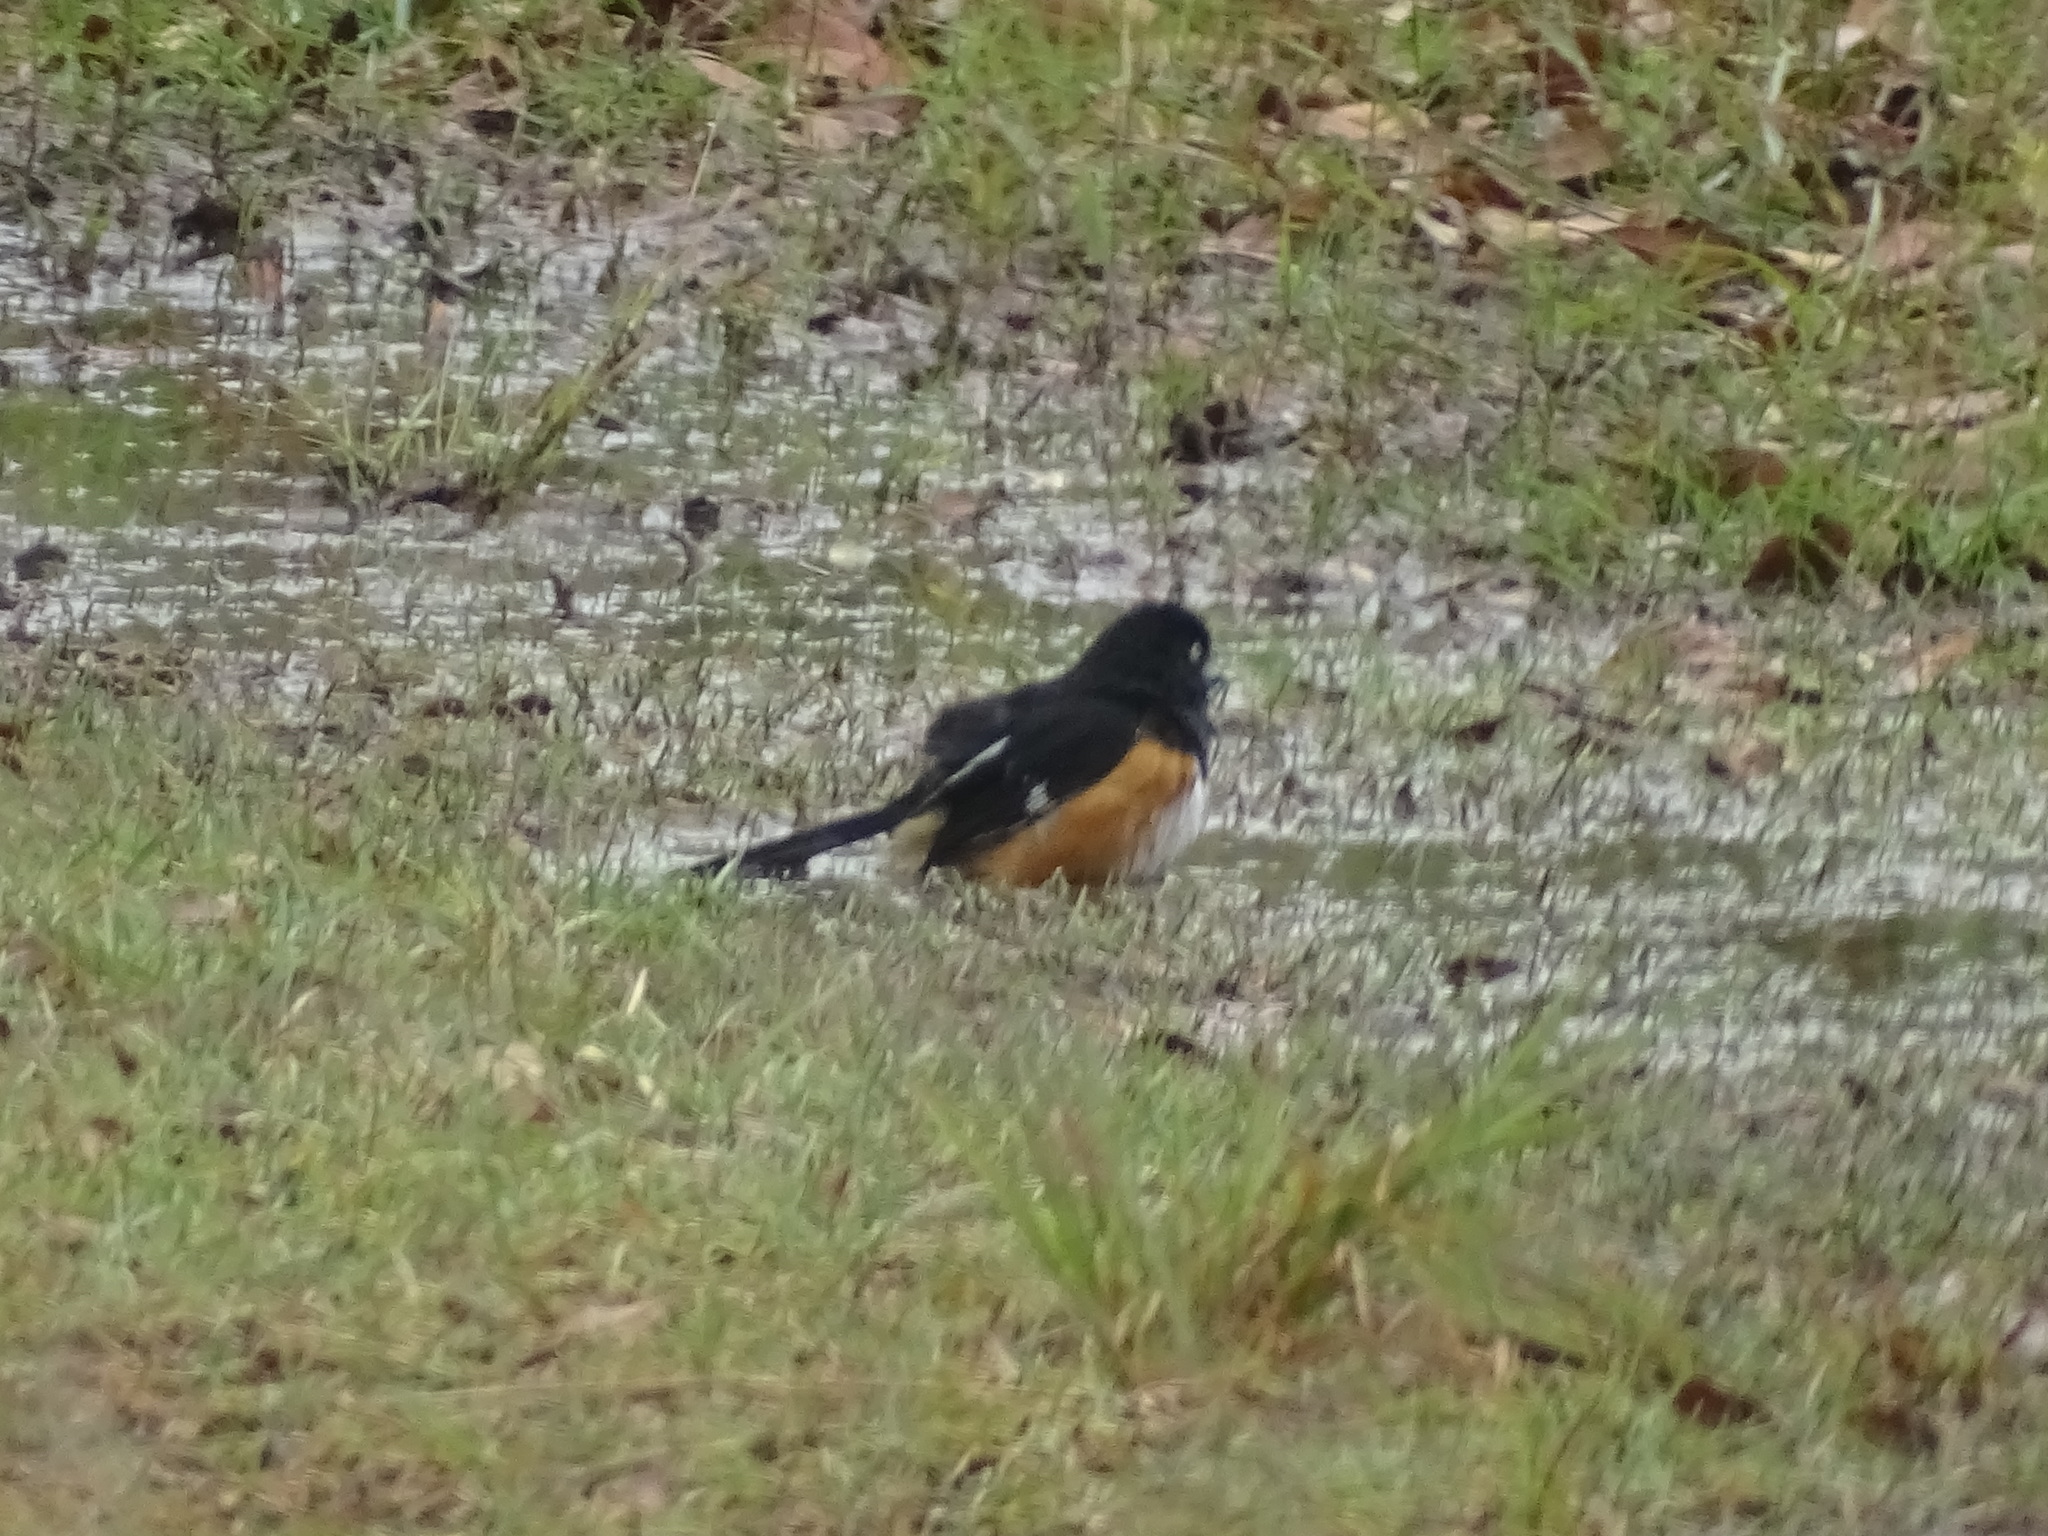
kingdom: Animalia
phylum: Chordata
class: Aves
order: Passeriformes
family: Passerellidae
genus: Pipilo
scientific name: Pipilo erythrophthalmus
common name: Eastern towhee
